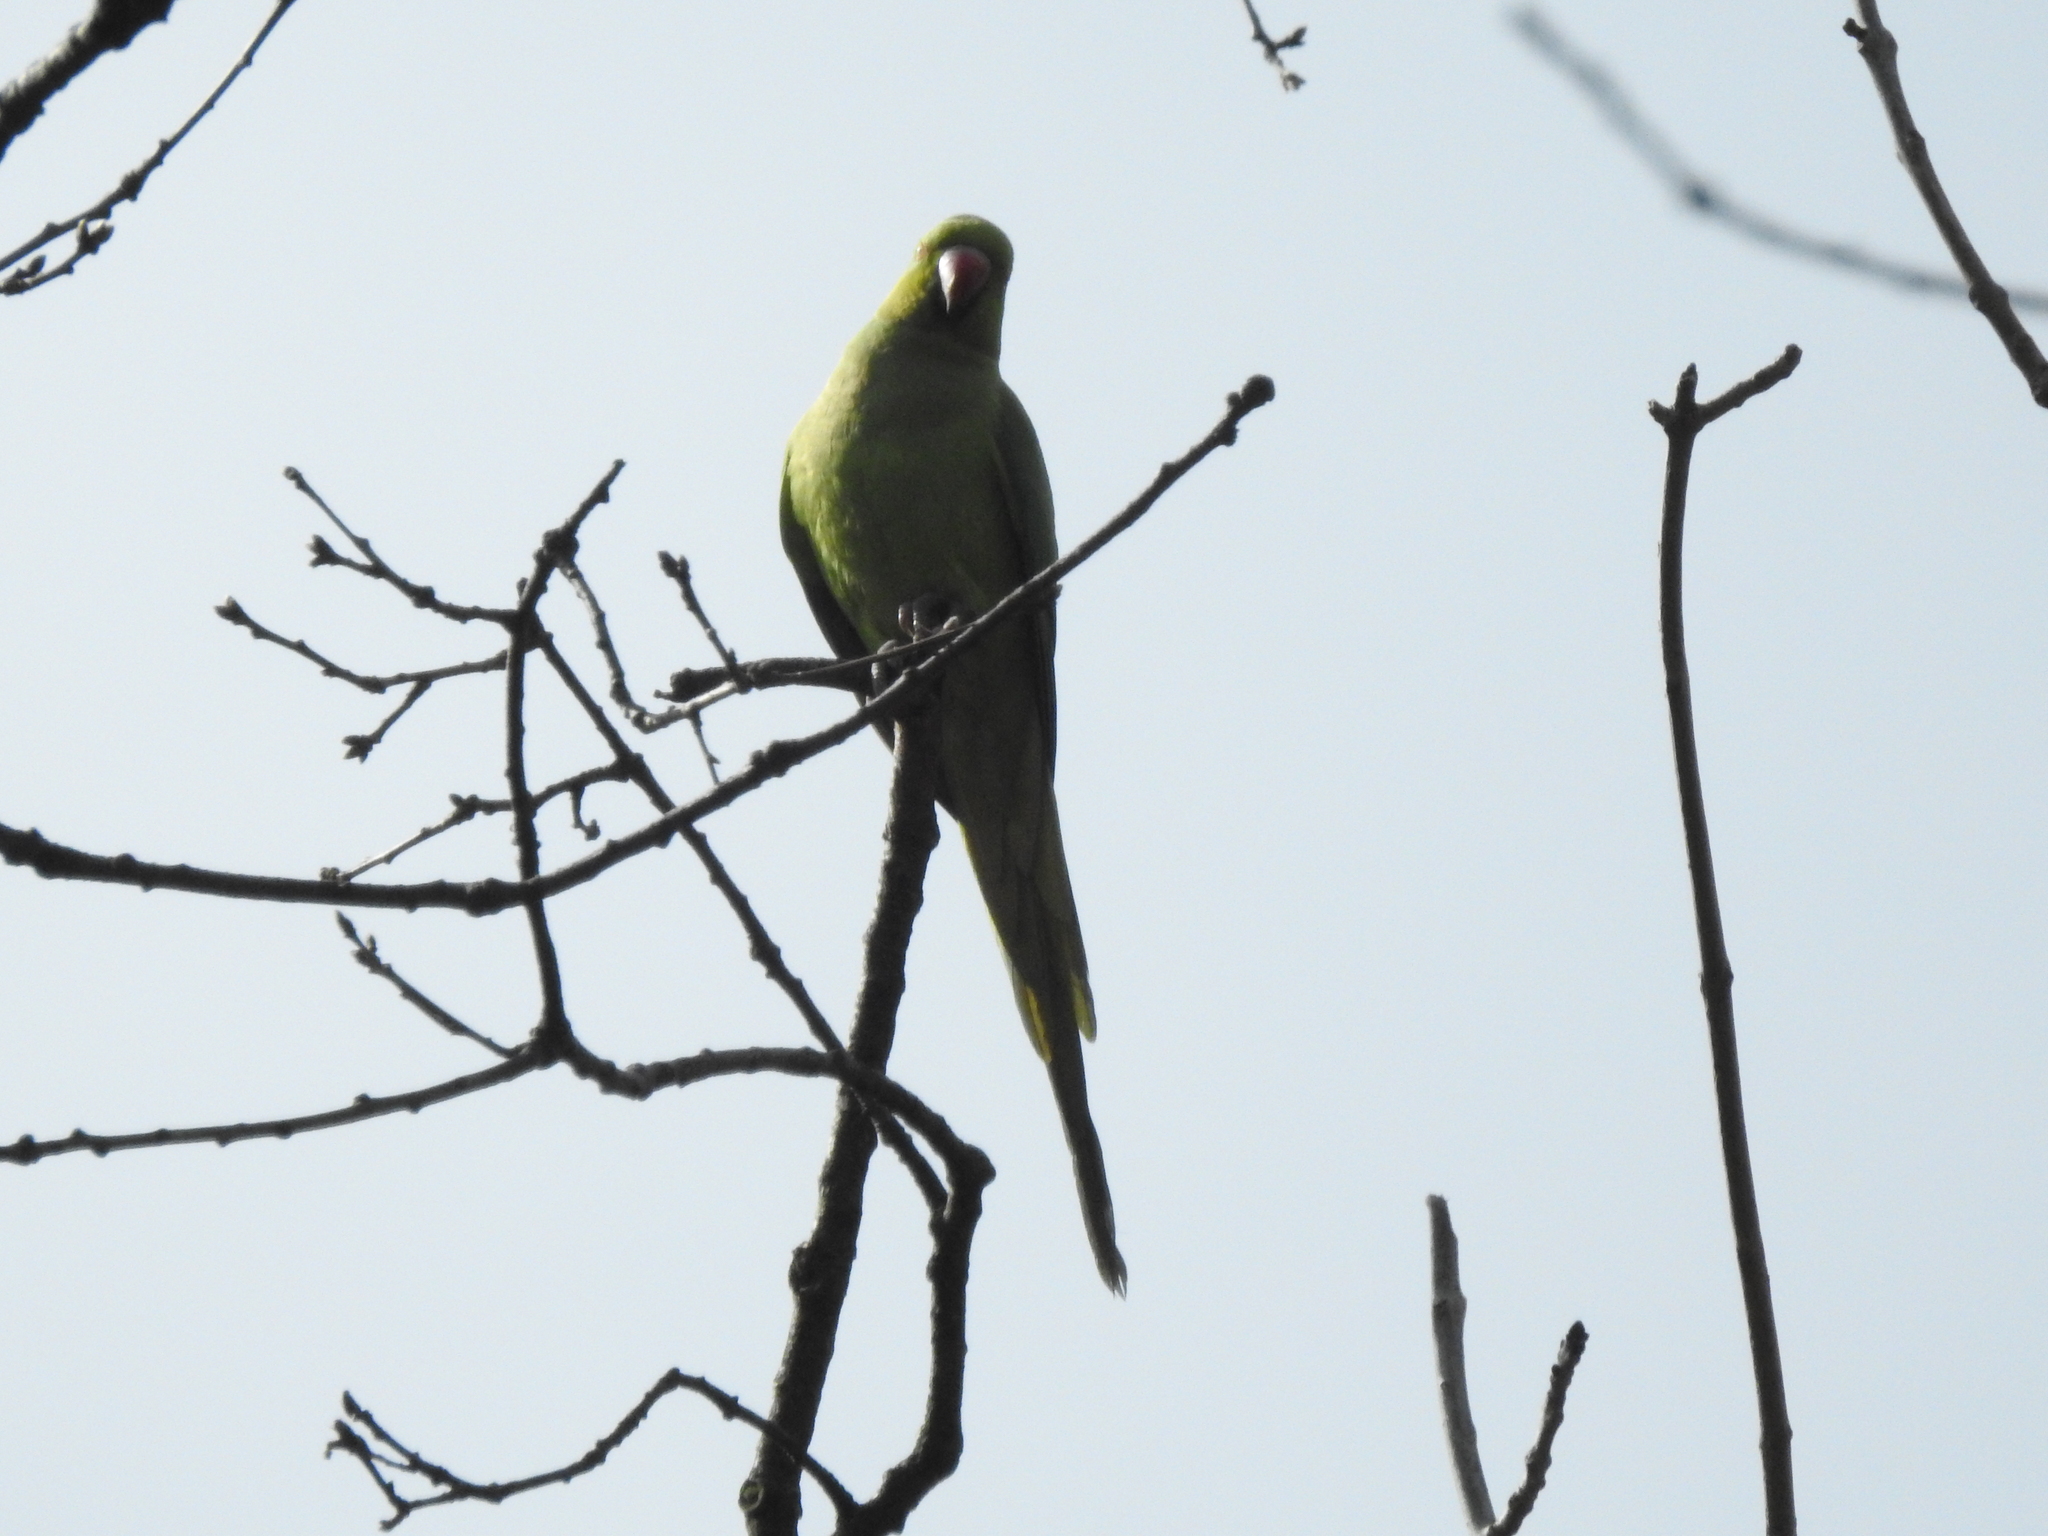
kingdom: Animalia
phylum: Chordata
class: Aves
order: Psittaciformes
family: Psittacidae
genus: Psittacula
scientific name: Psittacula krameri
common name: Rose-ringed parakeet
